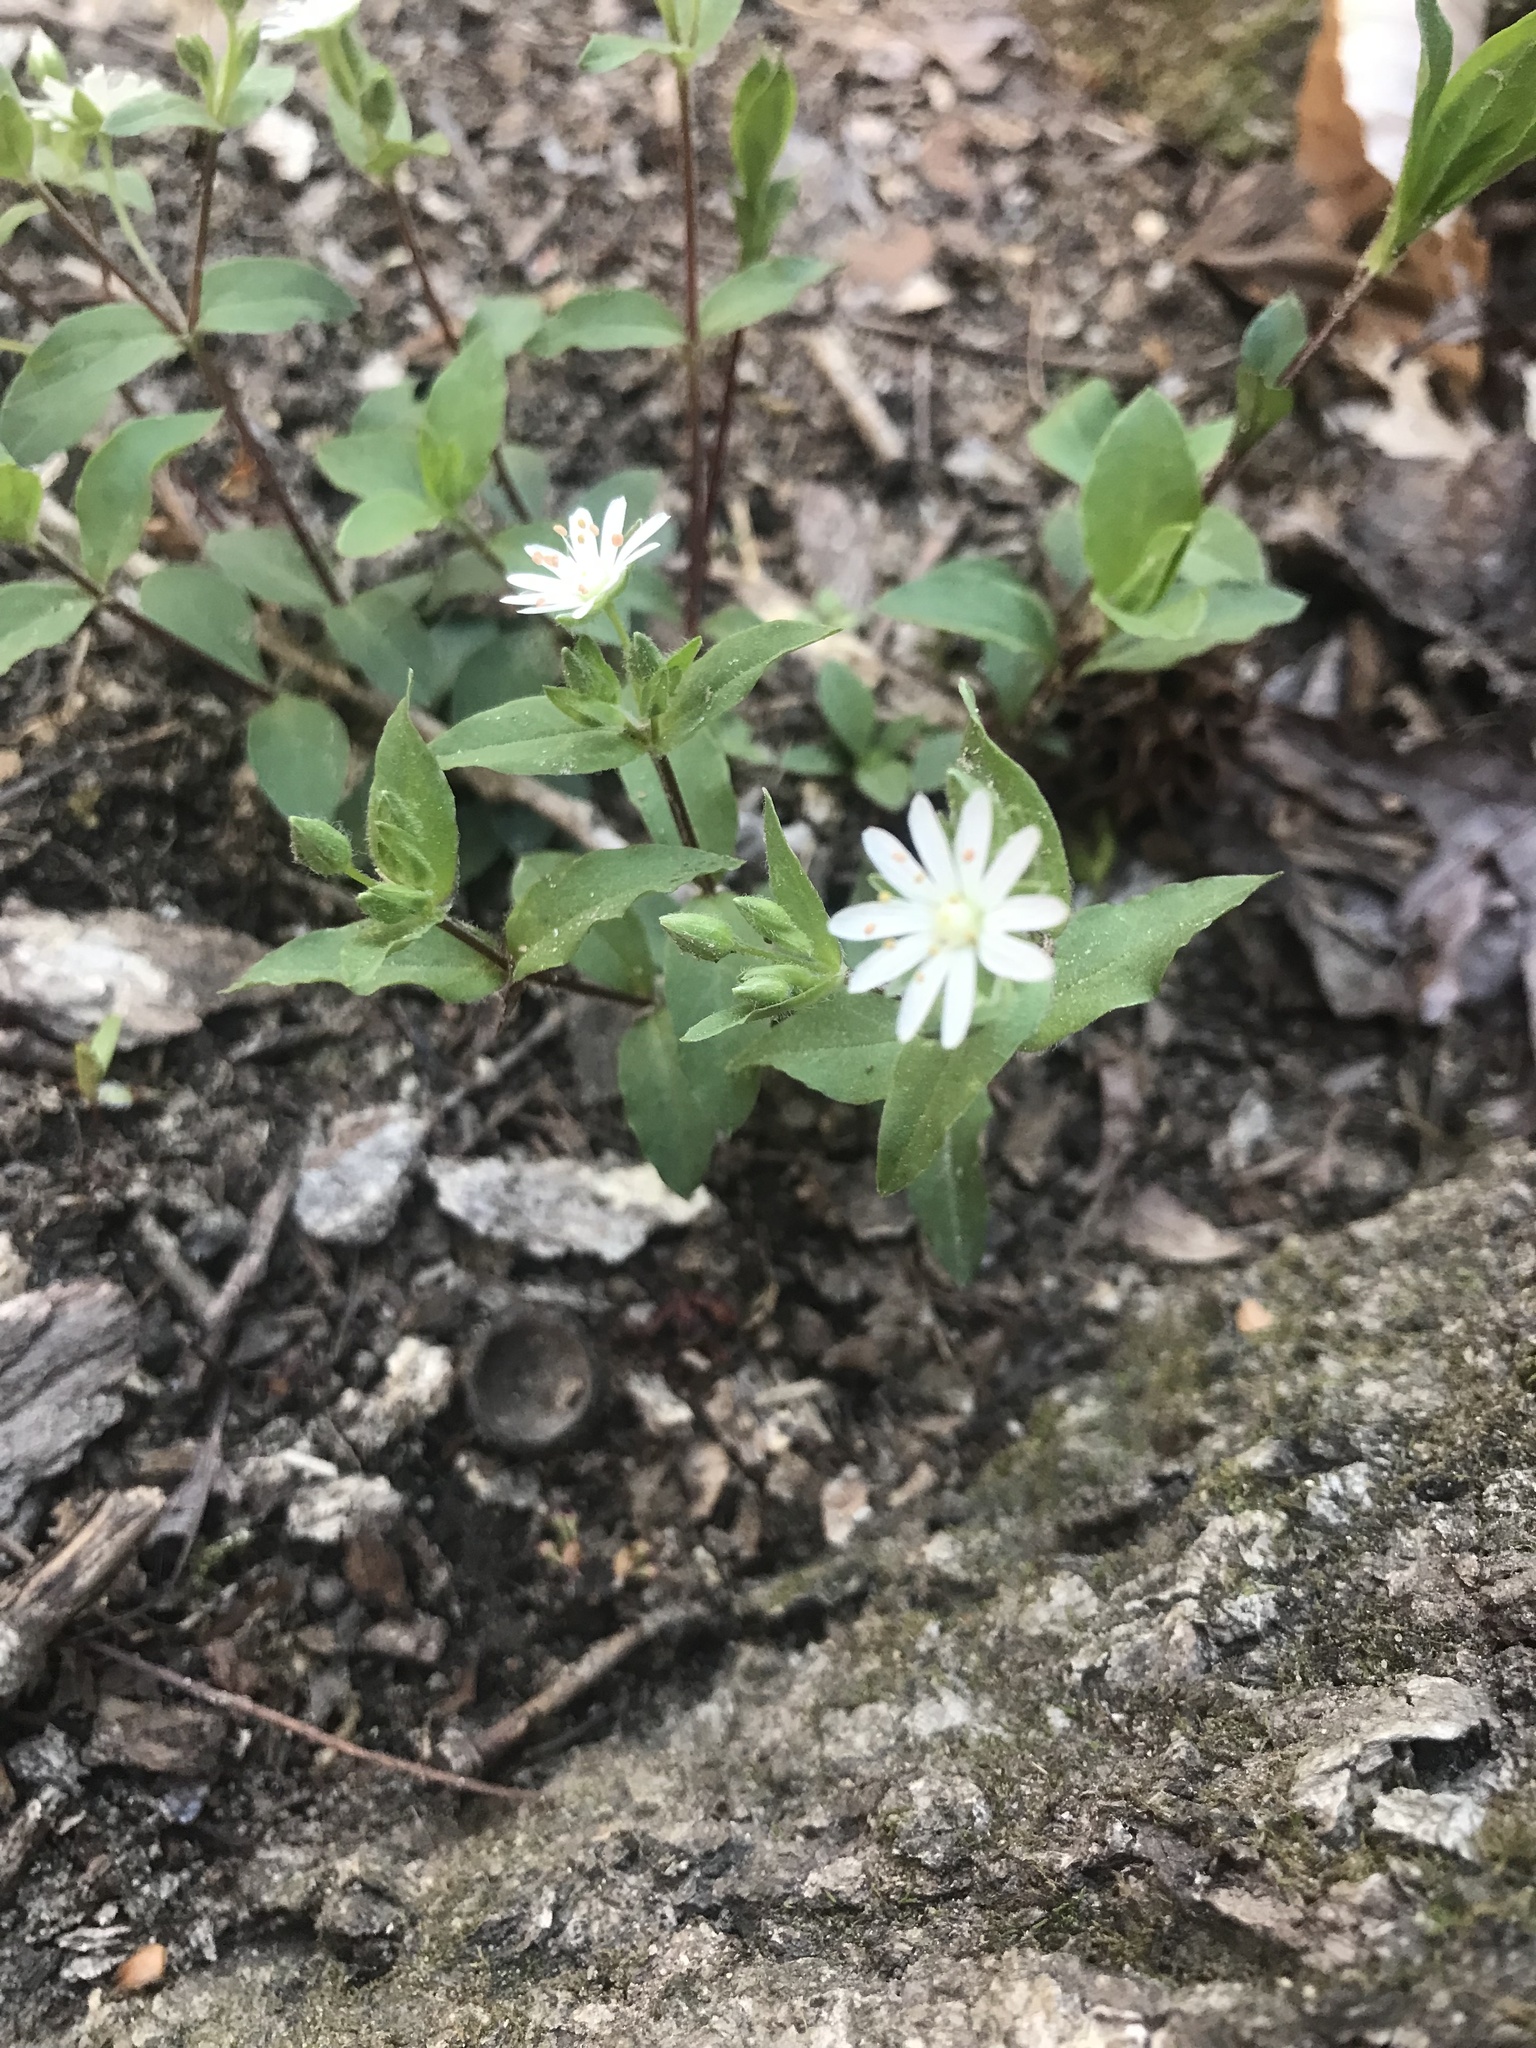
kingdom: Plantae
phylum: Tracheophyta
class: Magnoliopsida
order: Caryophyllales
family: Caryophyllaceae
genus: Stellaria
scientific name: Stellaria pubera
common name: Star chickweed
